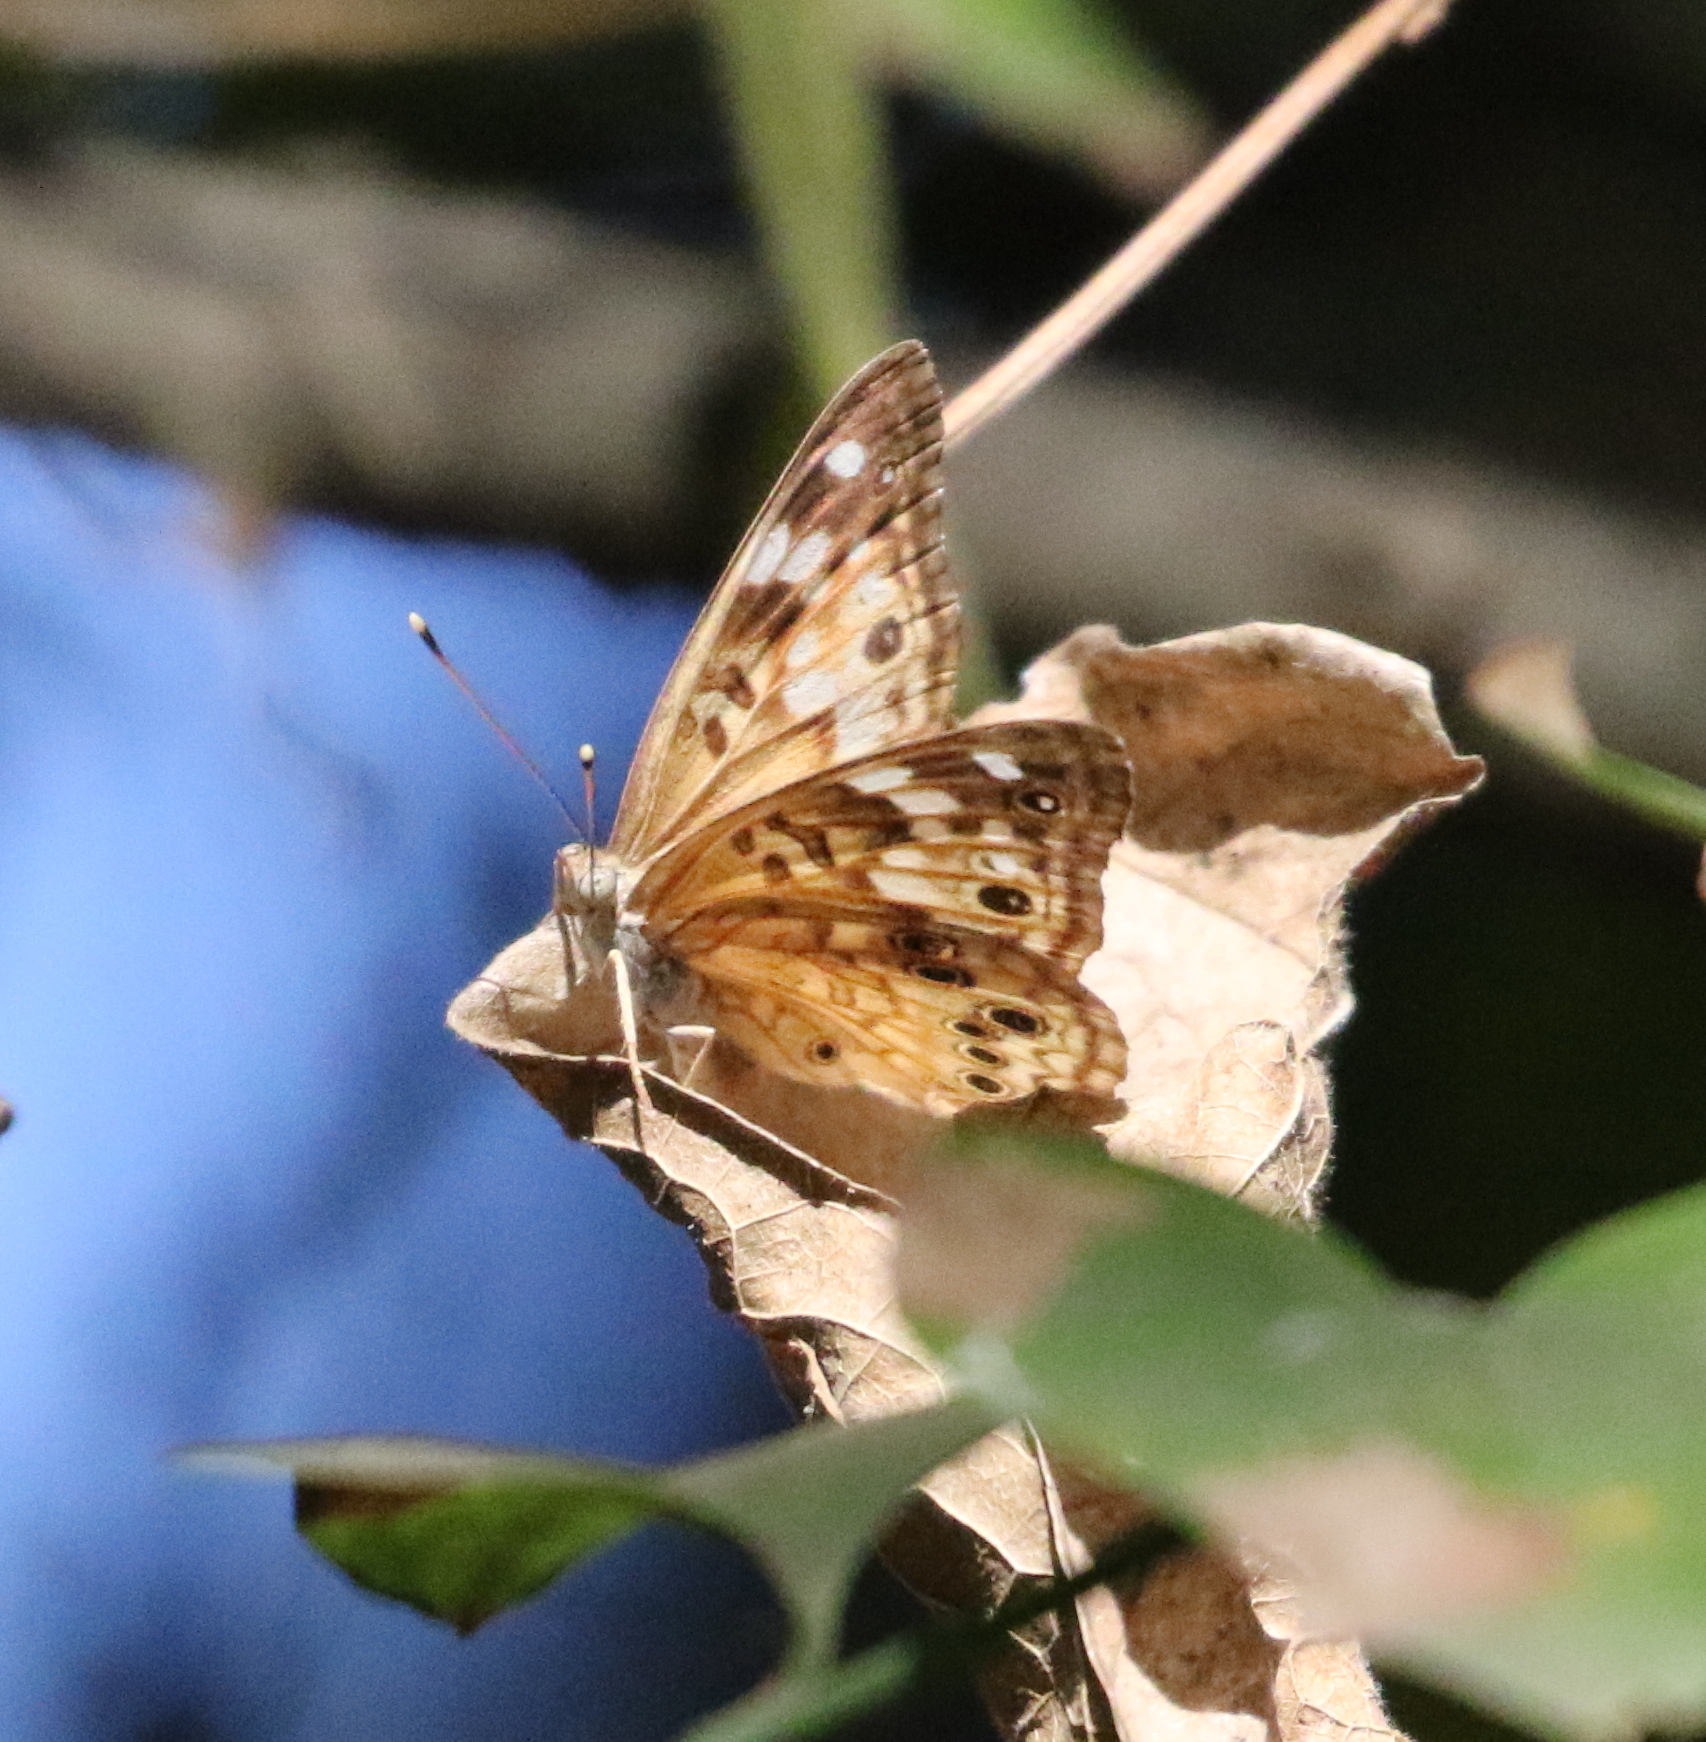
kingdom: Animalia
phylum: Arthropoda
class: Insecta
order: Lepidoptera
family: Nymphalidae
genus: Asterocampa
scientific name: Asterocampa celtis
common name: Hackberry emperor
